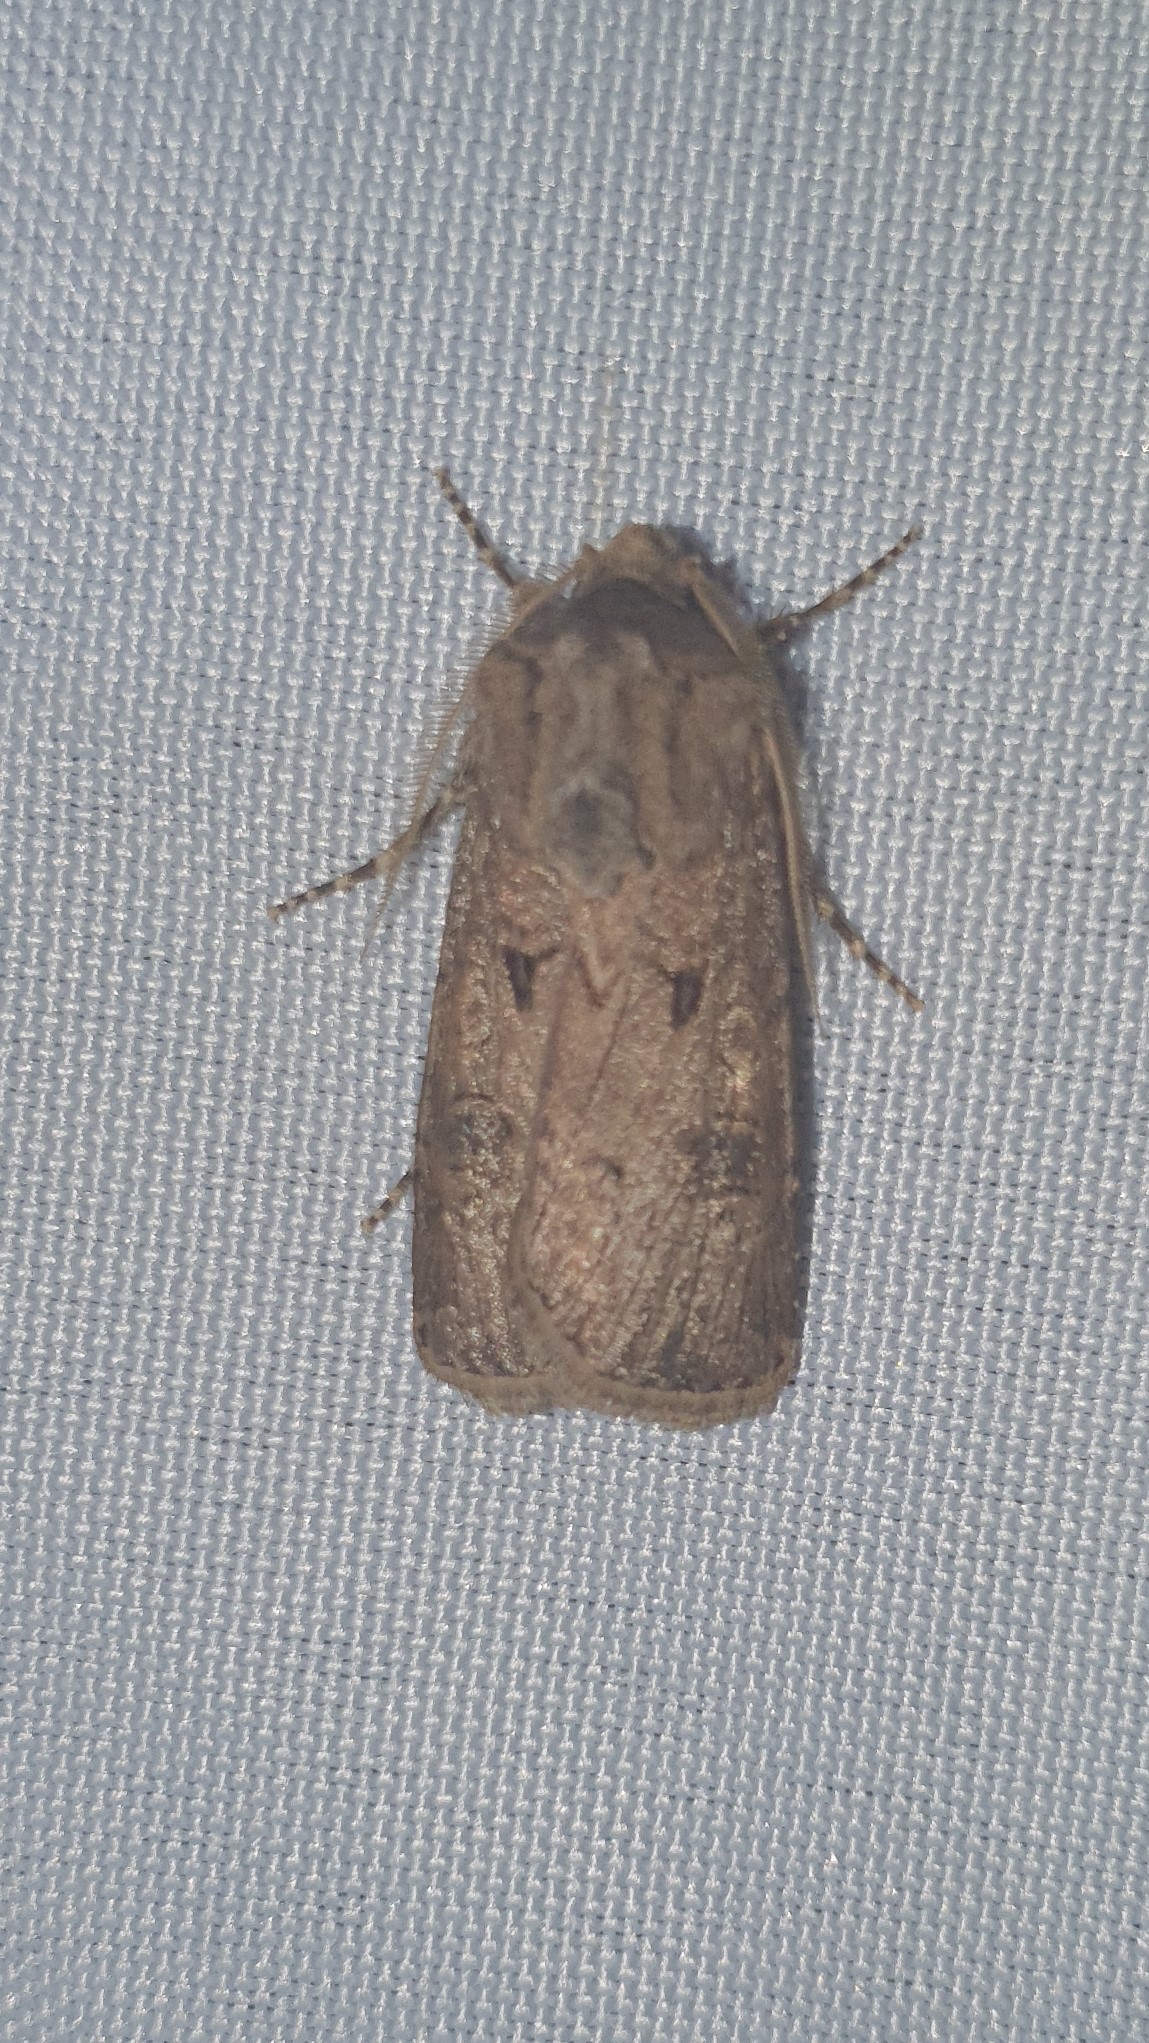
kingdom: Animalia
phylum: Arthropoda
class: Insecta
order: Lepidoptera
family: Noctuidae
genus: Agrotis
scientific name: Agrotis segetum
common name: Turnip moth
